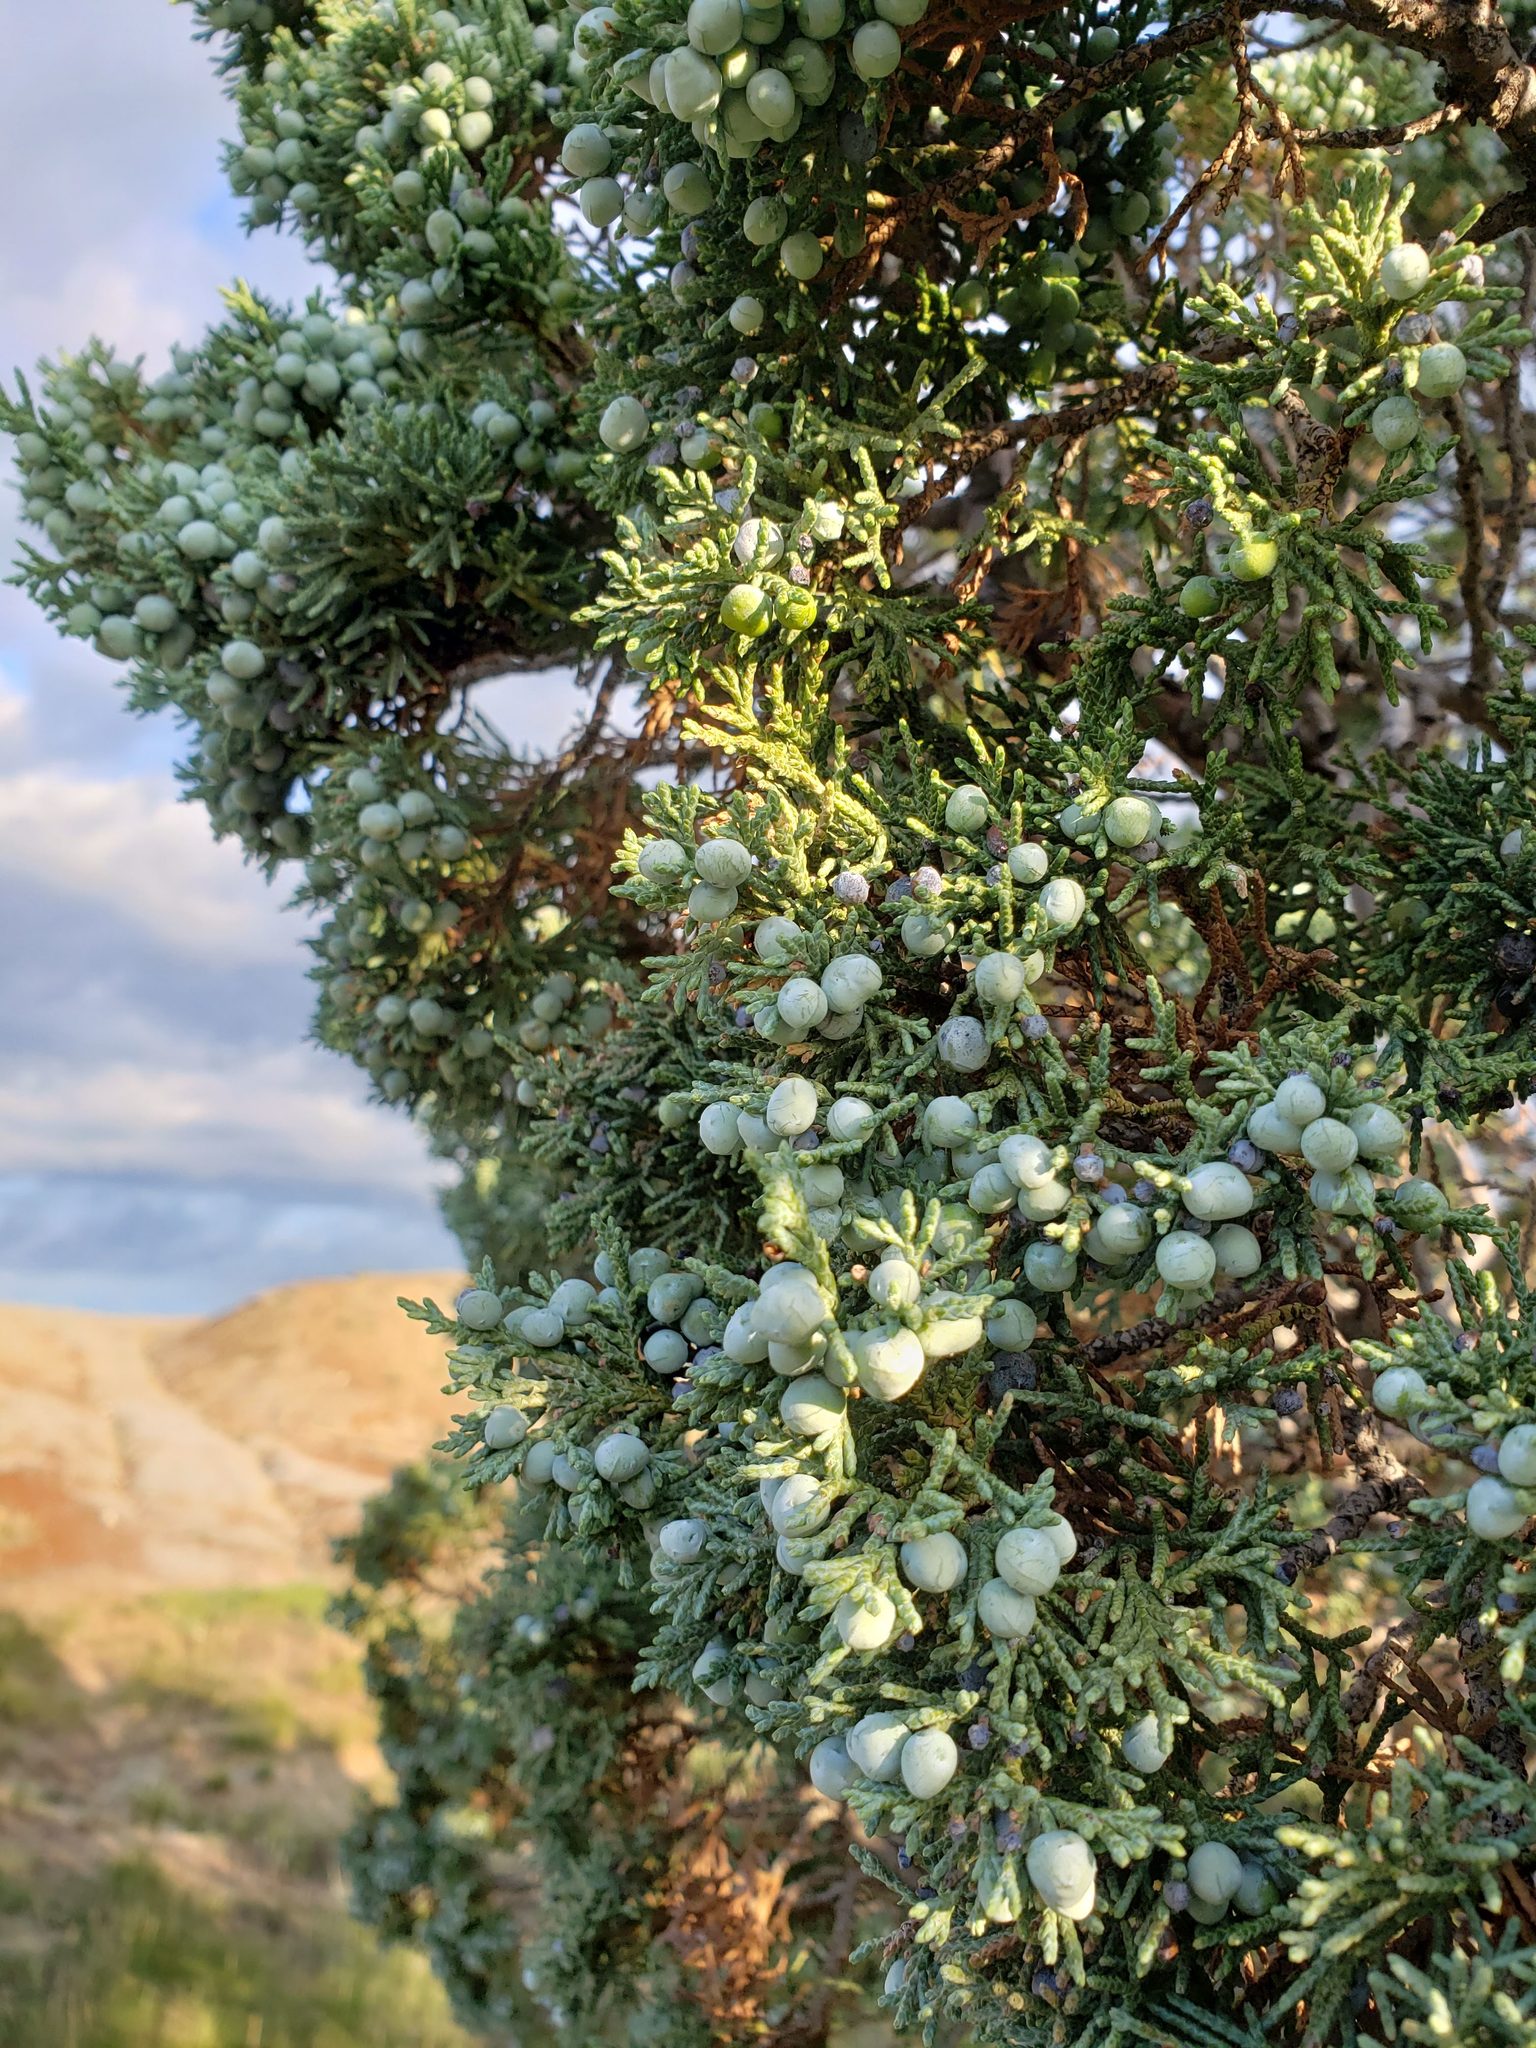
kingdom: Plantae
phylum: Tracheophyta
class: Pinopsida
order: Pinales
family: Cupressaceae
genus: Juniperus
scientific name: Juniperus scopulorum
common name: Rocky mountain juniper
